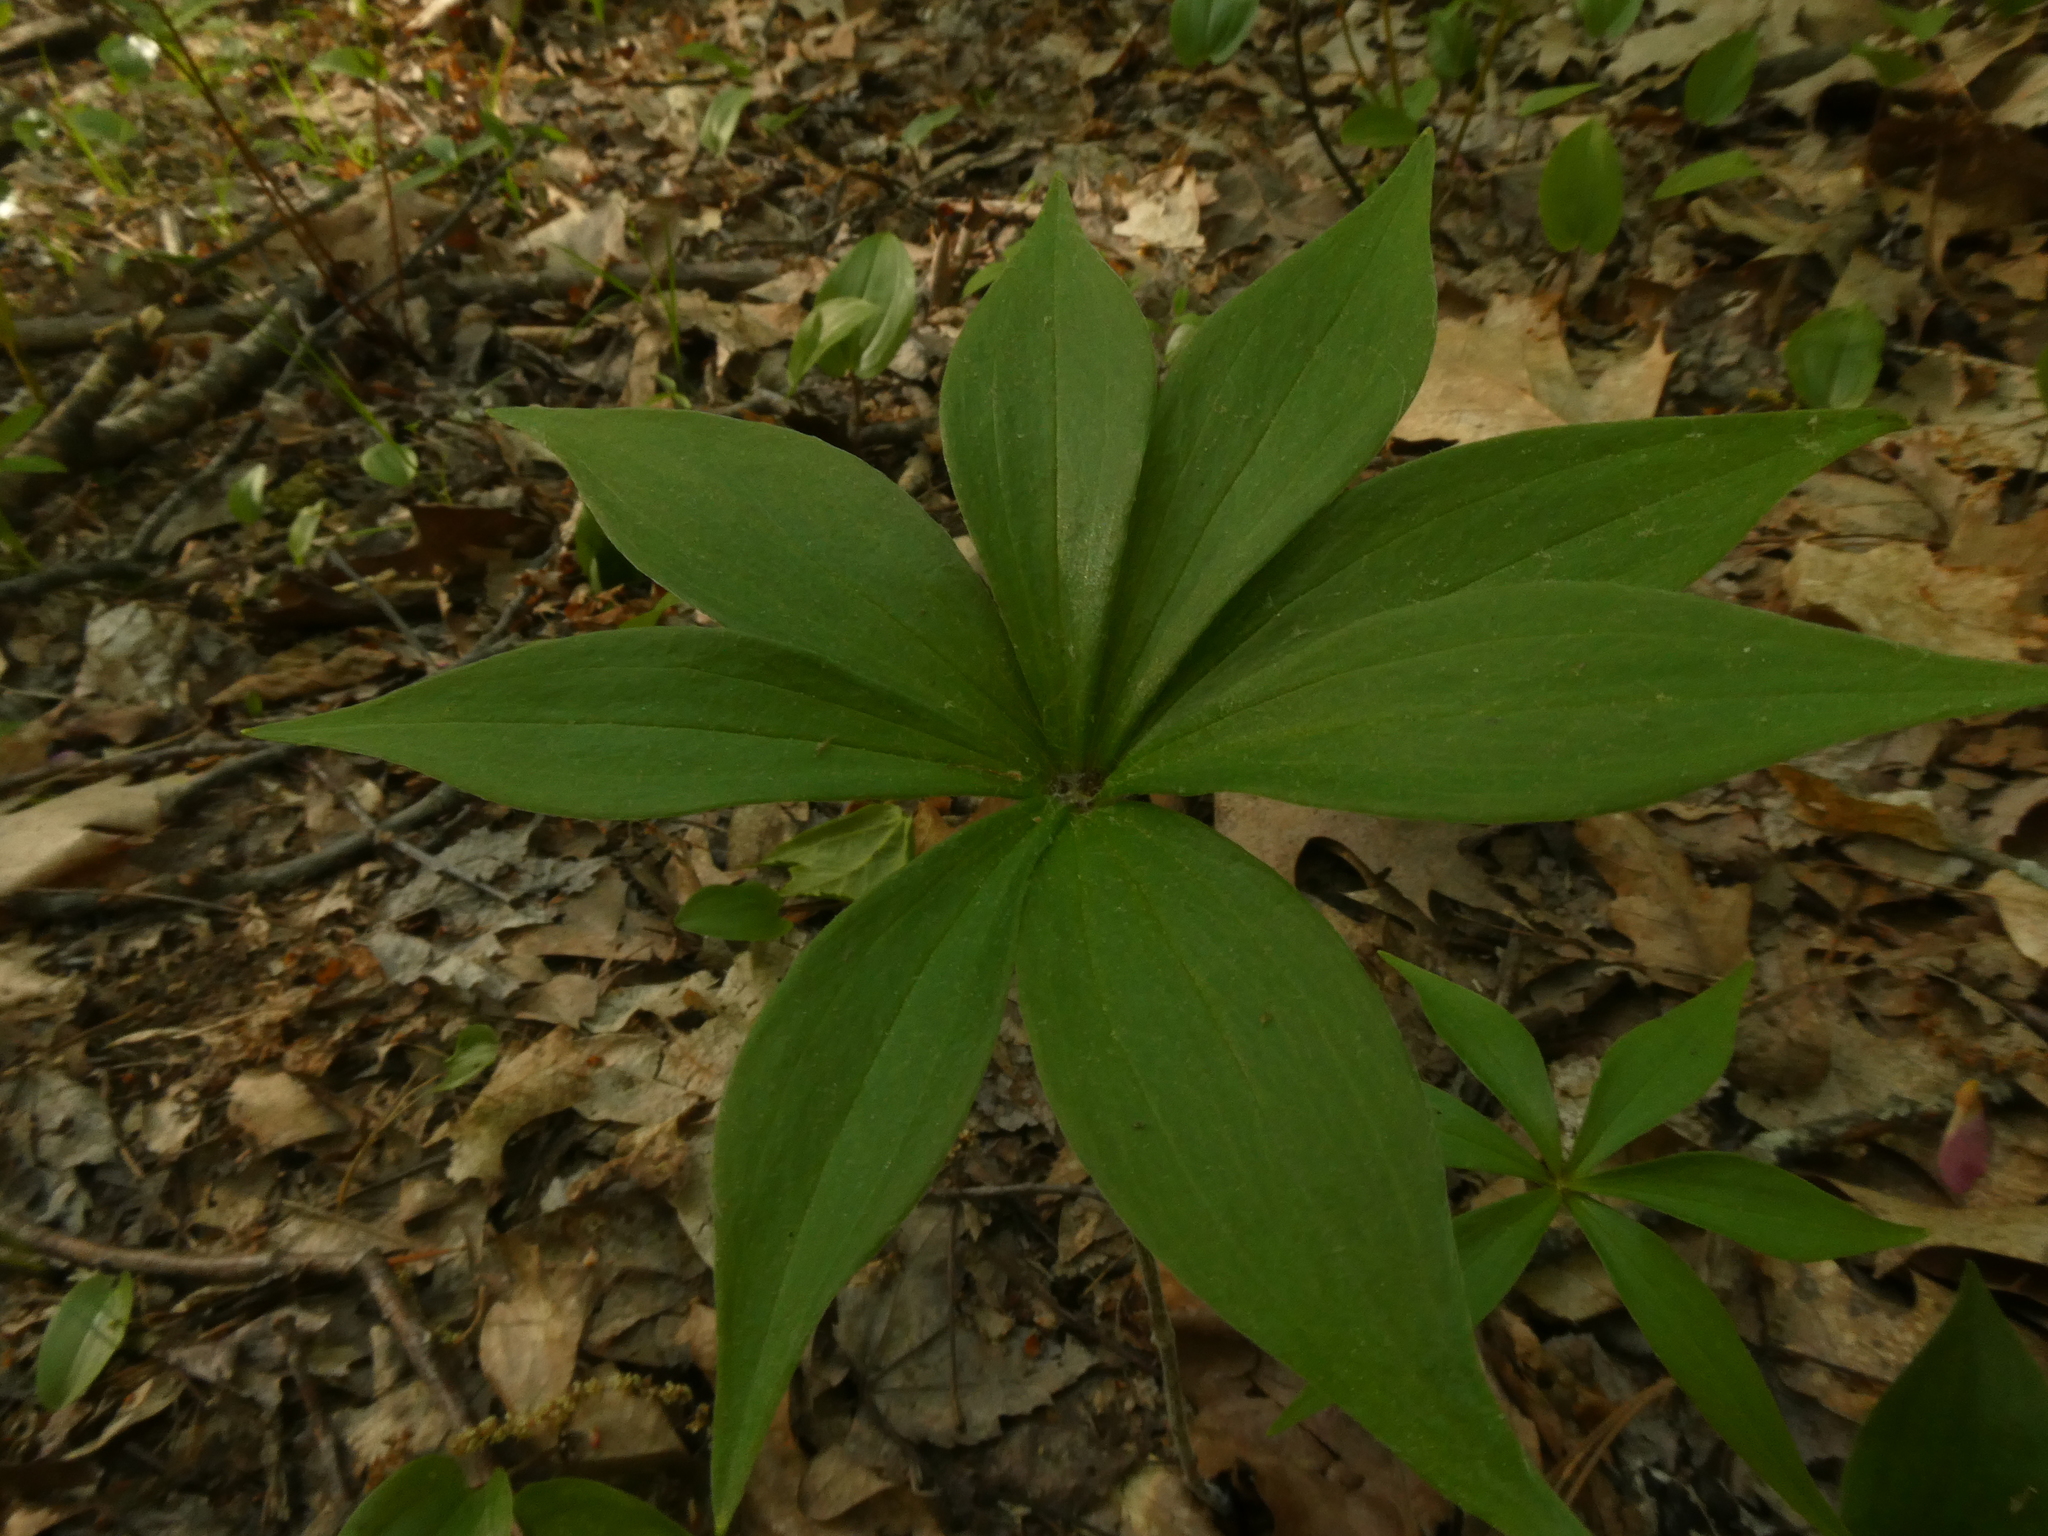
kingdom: Plantae
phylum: Tracheophyta
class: Liliopsida
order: Liliales
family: Liliaceae
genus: Medeola
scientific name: Medeola virginiana
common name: Indian cucumber-root
